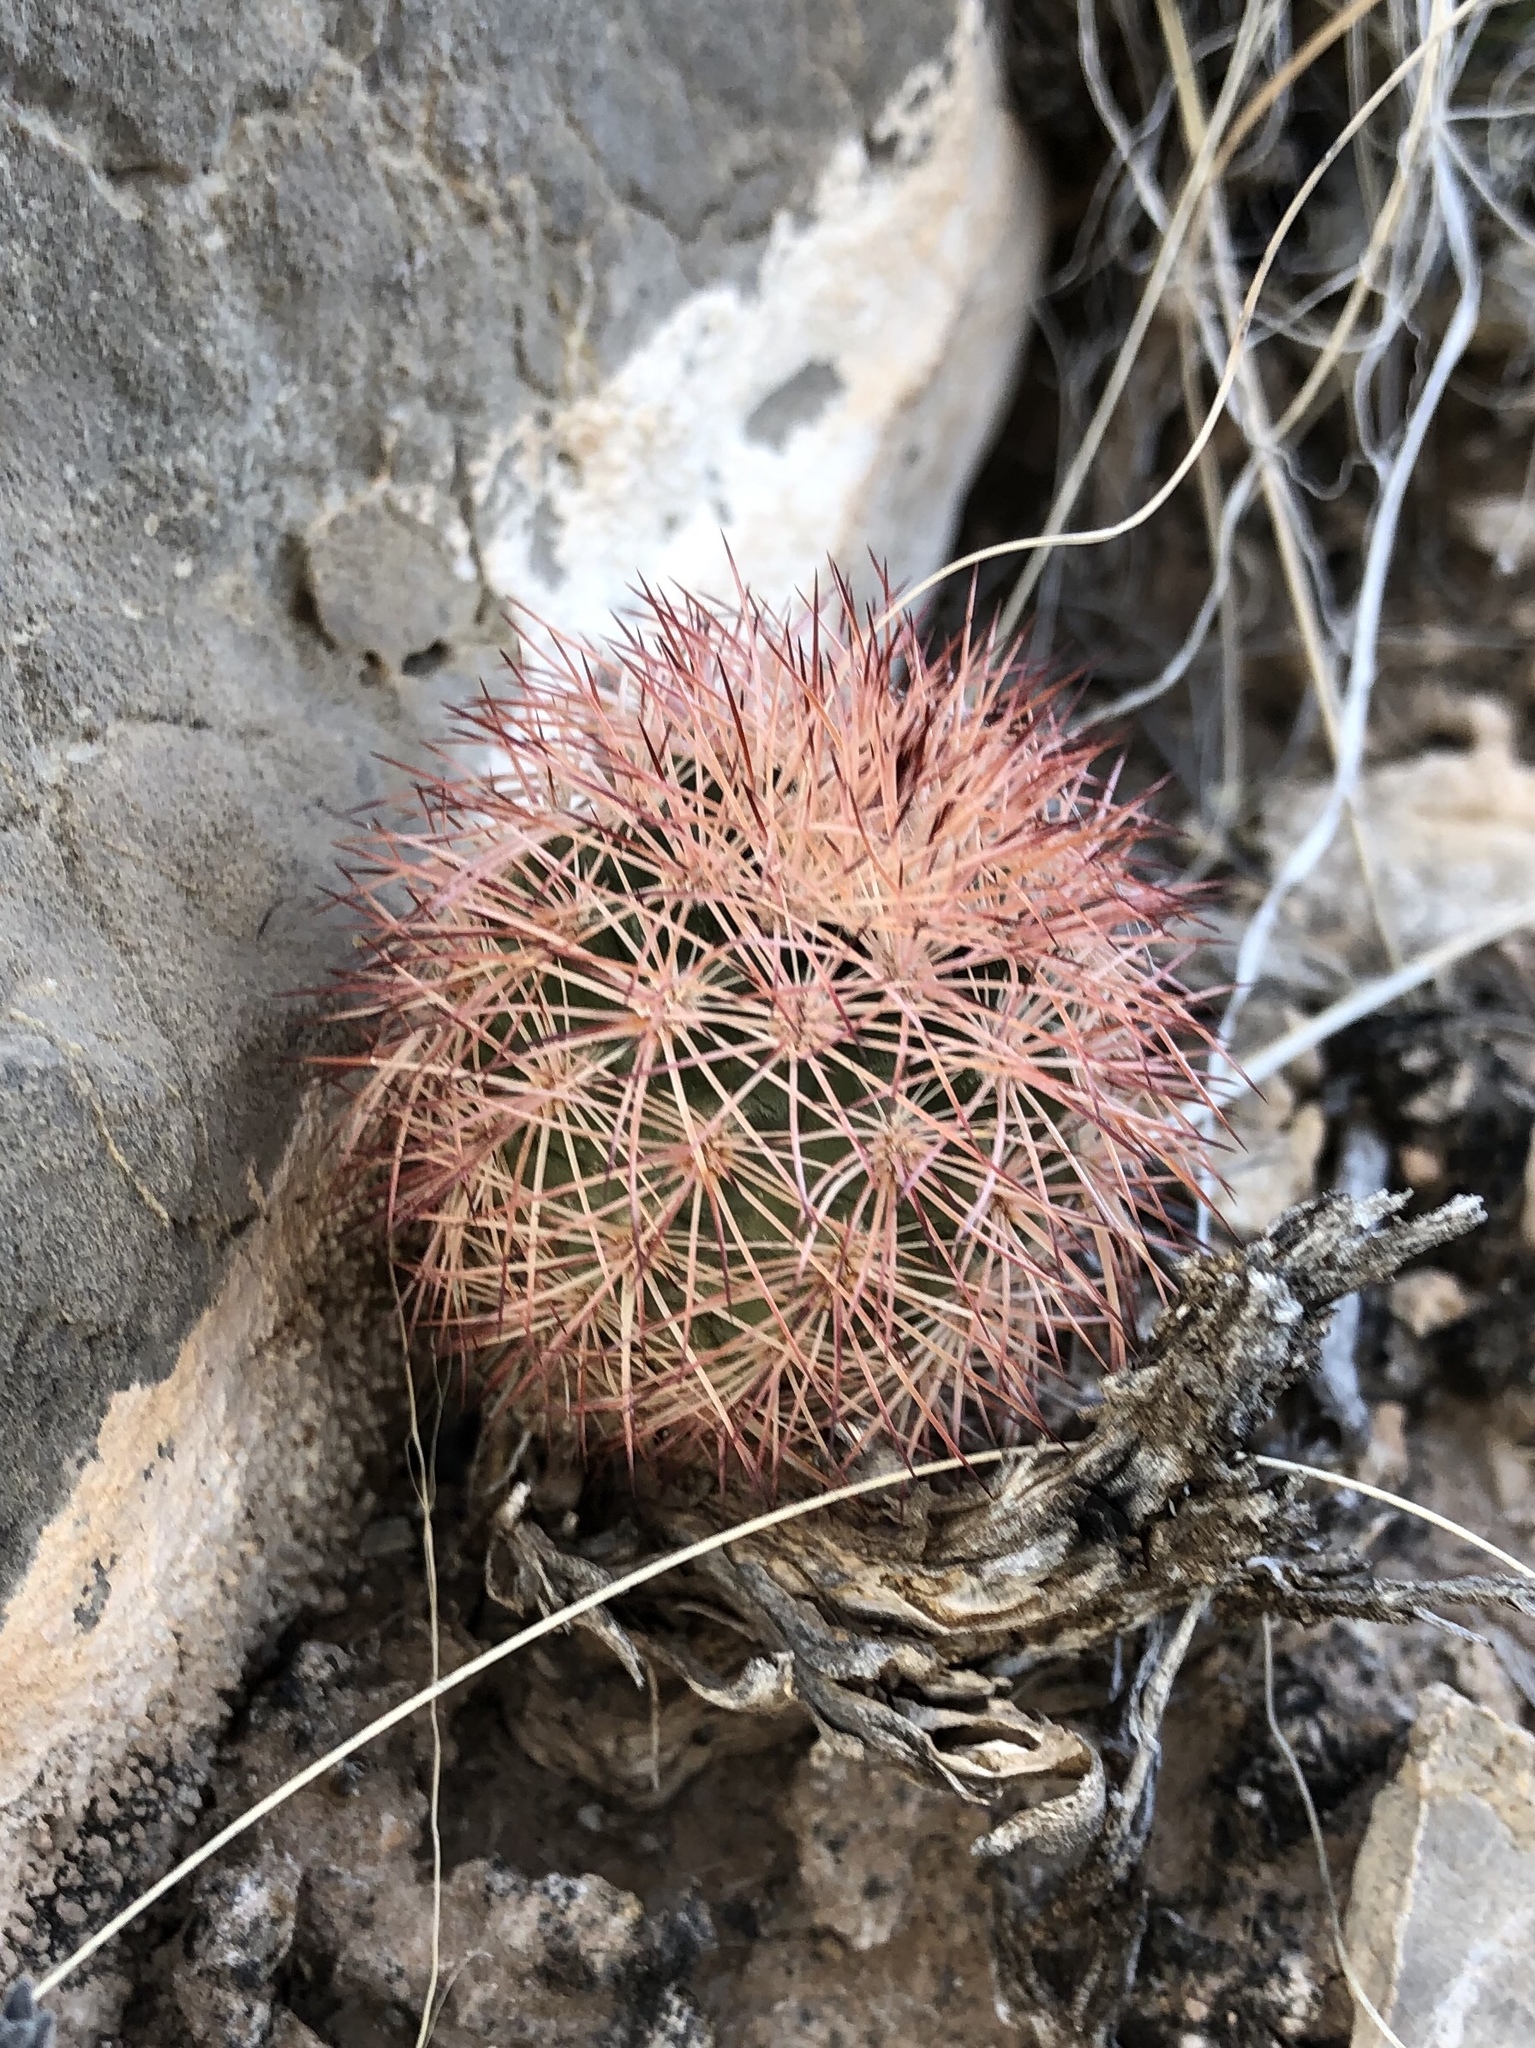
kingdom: Plantae
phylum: Tracheophyta
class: Magnoliopsida
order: Caryophyllales
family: Cactaceae
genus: Echinocereus
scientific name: Echinocereus dasyacanthus
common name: Spiny hedgehog cactus
